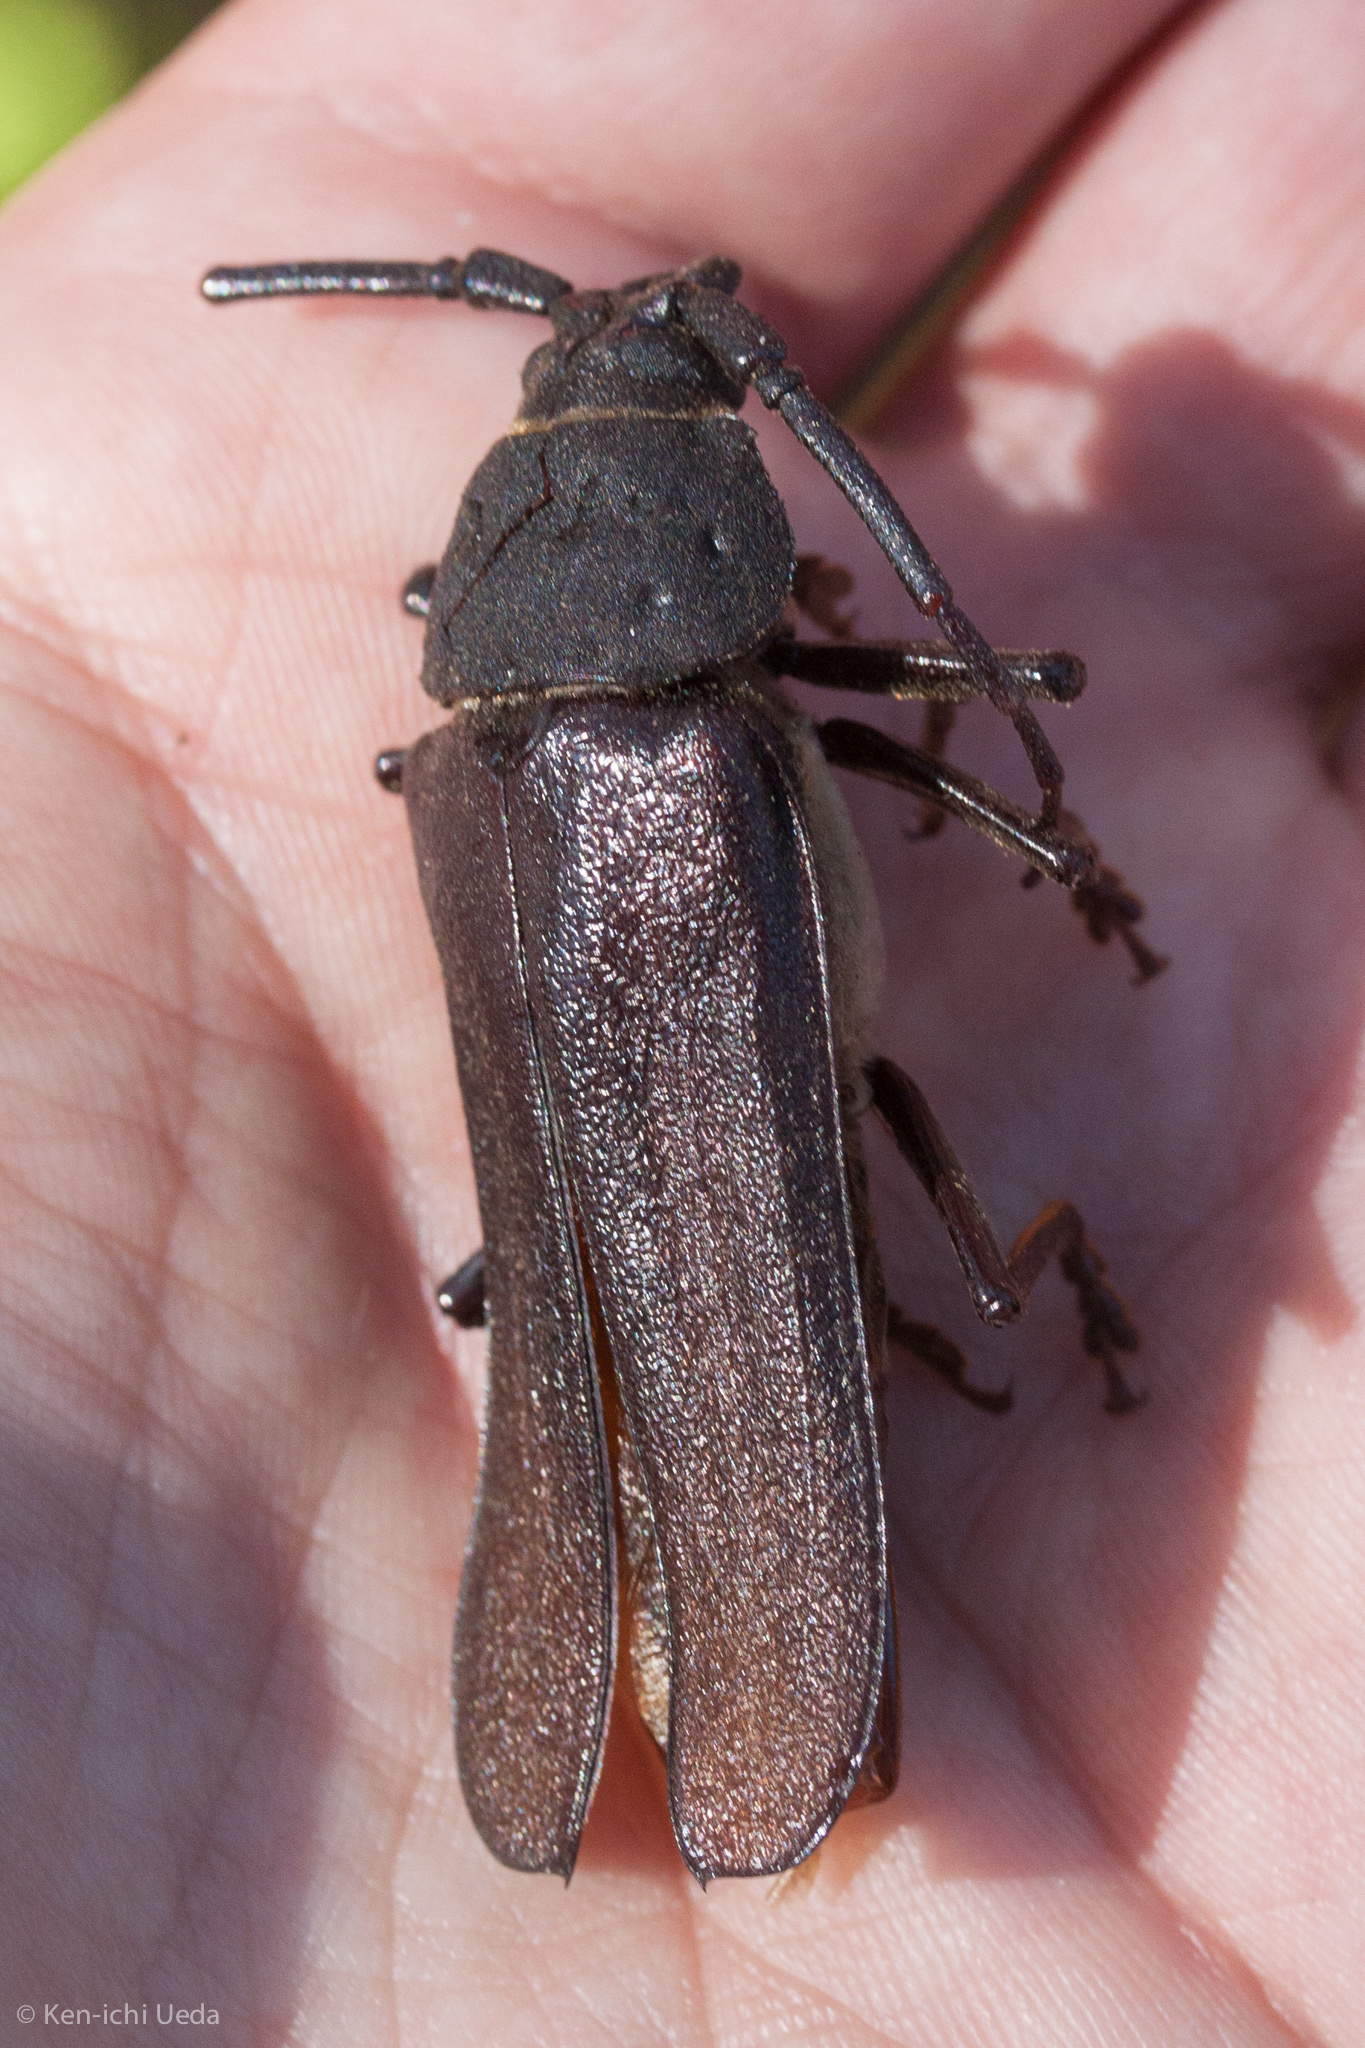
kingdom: Animalia
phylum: Arthropoda
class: Insecta
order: Coleoptera
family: Cerambycidae
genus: Trichocnemis
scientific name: Trichocnemis spiculatus
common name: Long-horned beetle
